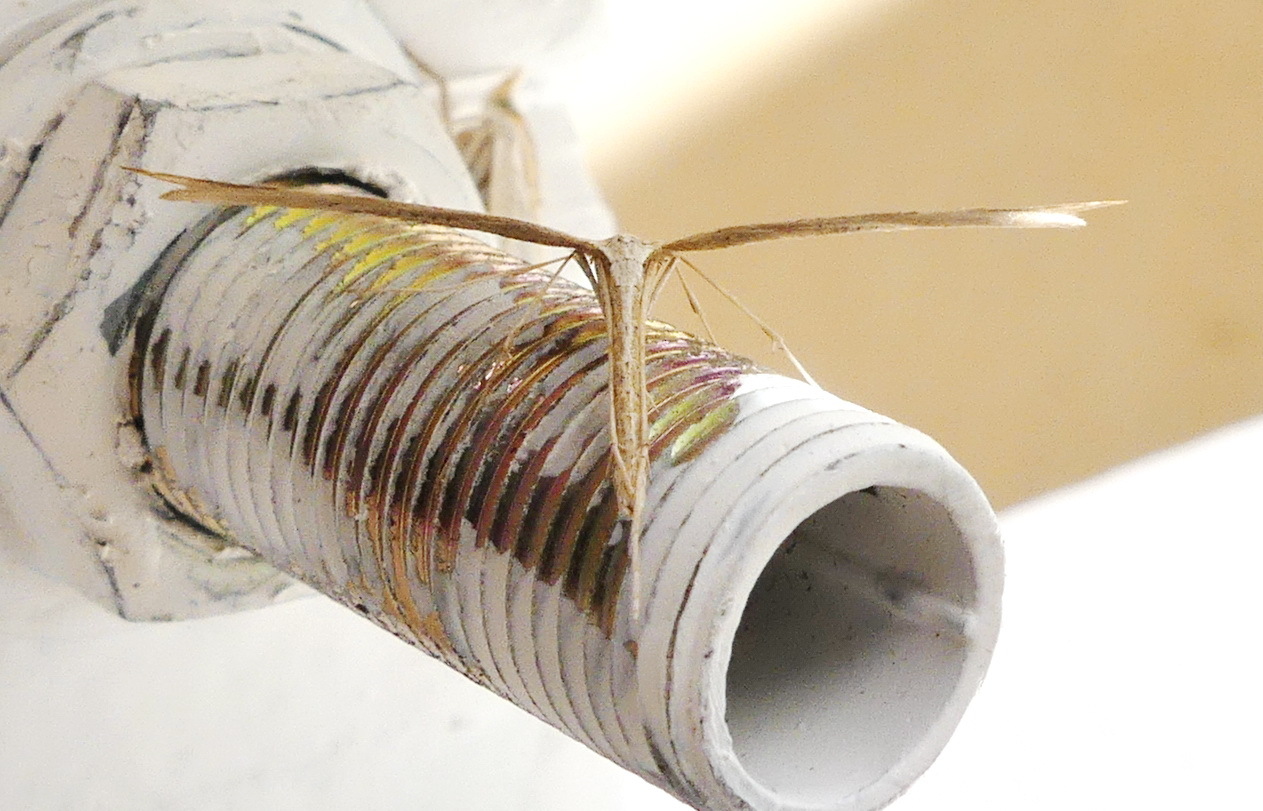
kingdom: Animalia
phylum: Arthropoda
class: Insecta
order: Lepidoptera
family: Pterophoridae
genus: Emmelina
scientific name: Emmelina monodactyla
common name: Common plume
